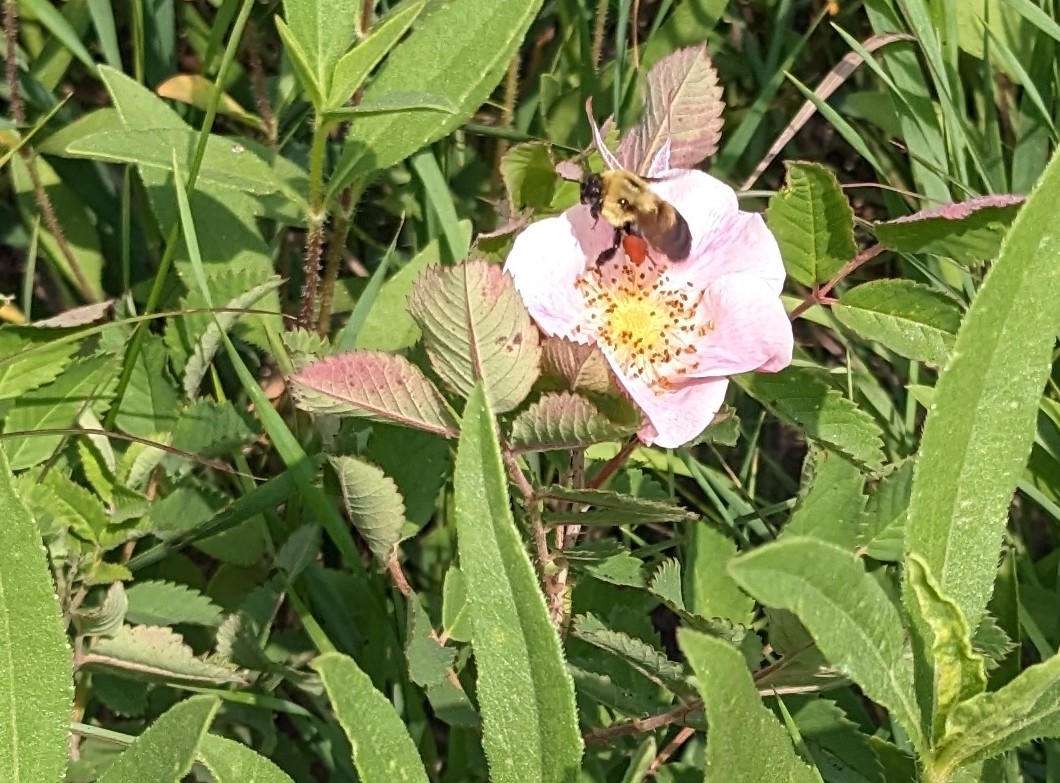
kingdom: Animalia
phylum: Arthropoda
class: Insecta
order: Hymenoptera
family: Apidae
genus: Bombus
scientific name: Bombus griseocollis
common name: Brown-belted bumble bee
